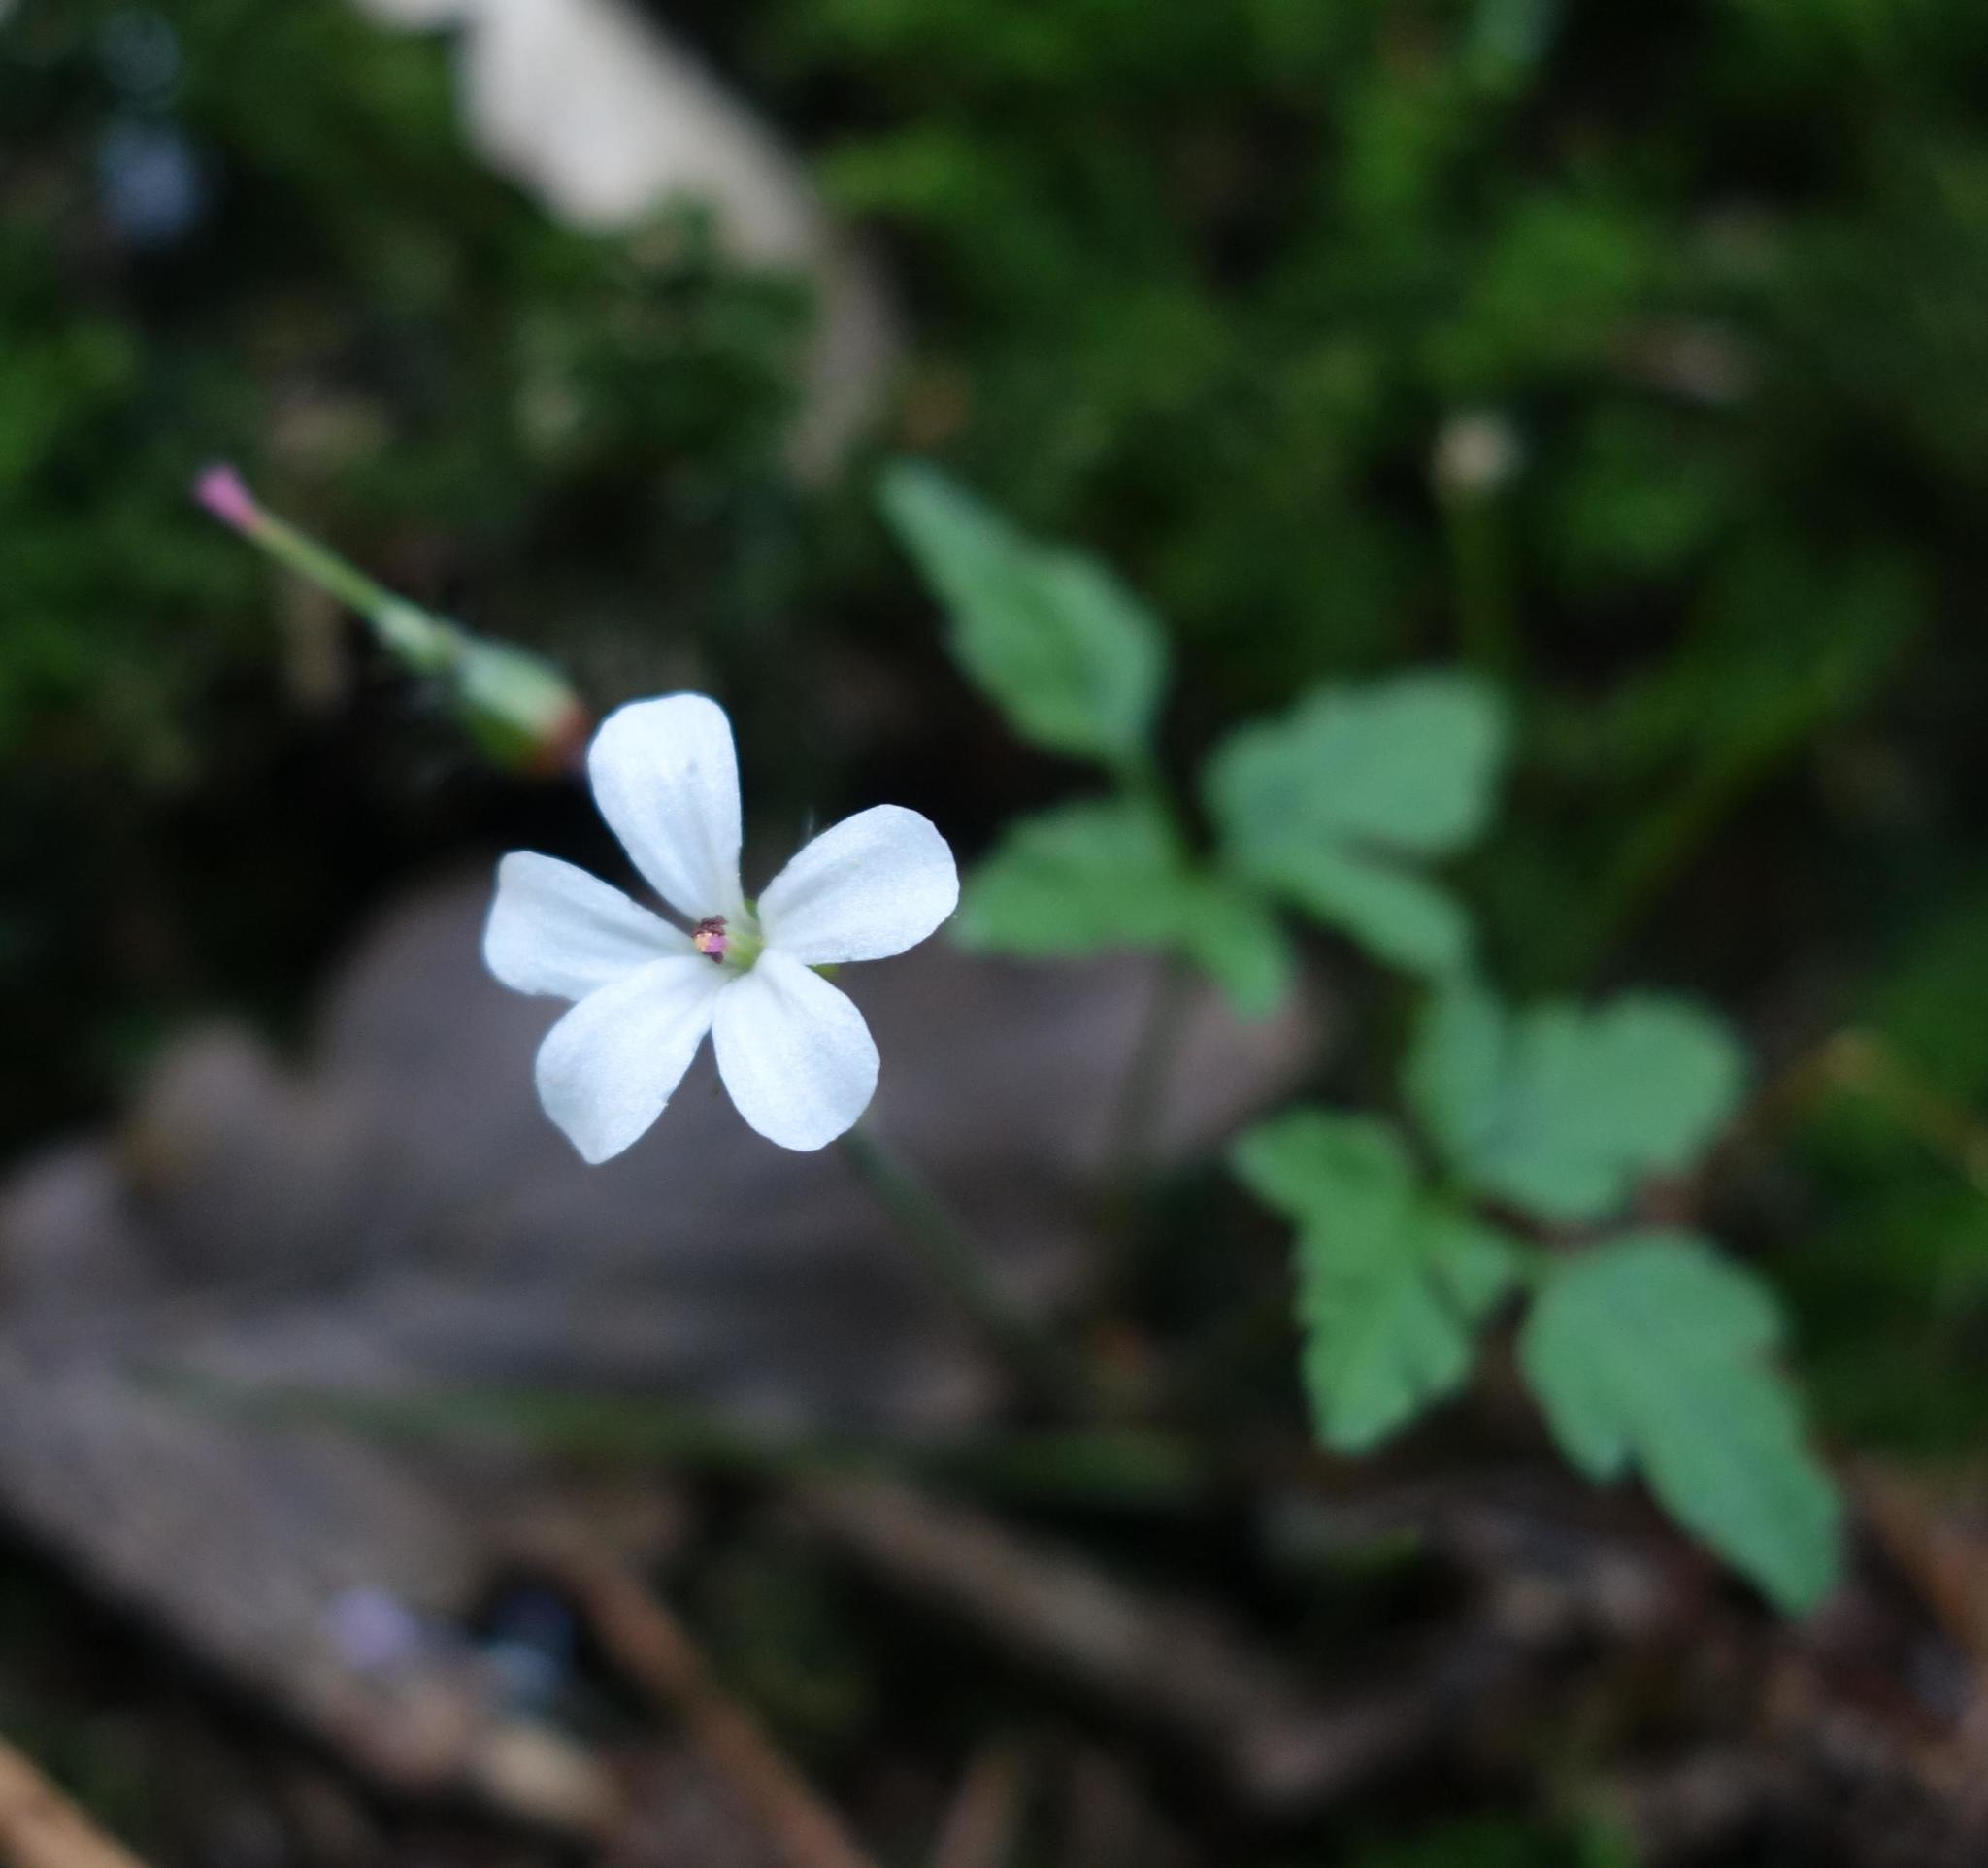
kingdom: Plantae
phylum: Tracheophyta
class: Magnoliopsida
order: Geraniales
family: Geraniaceae
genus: Geranium
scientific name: Geranium robertianum
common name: Herb-robert
